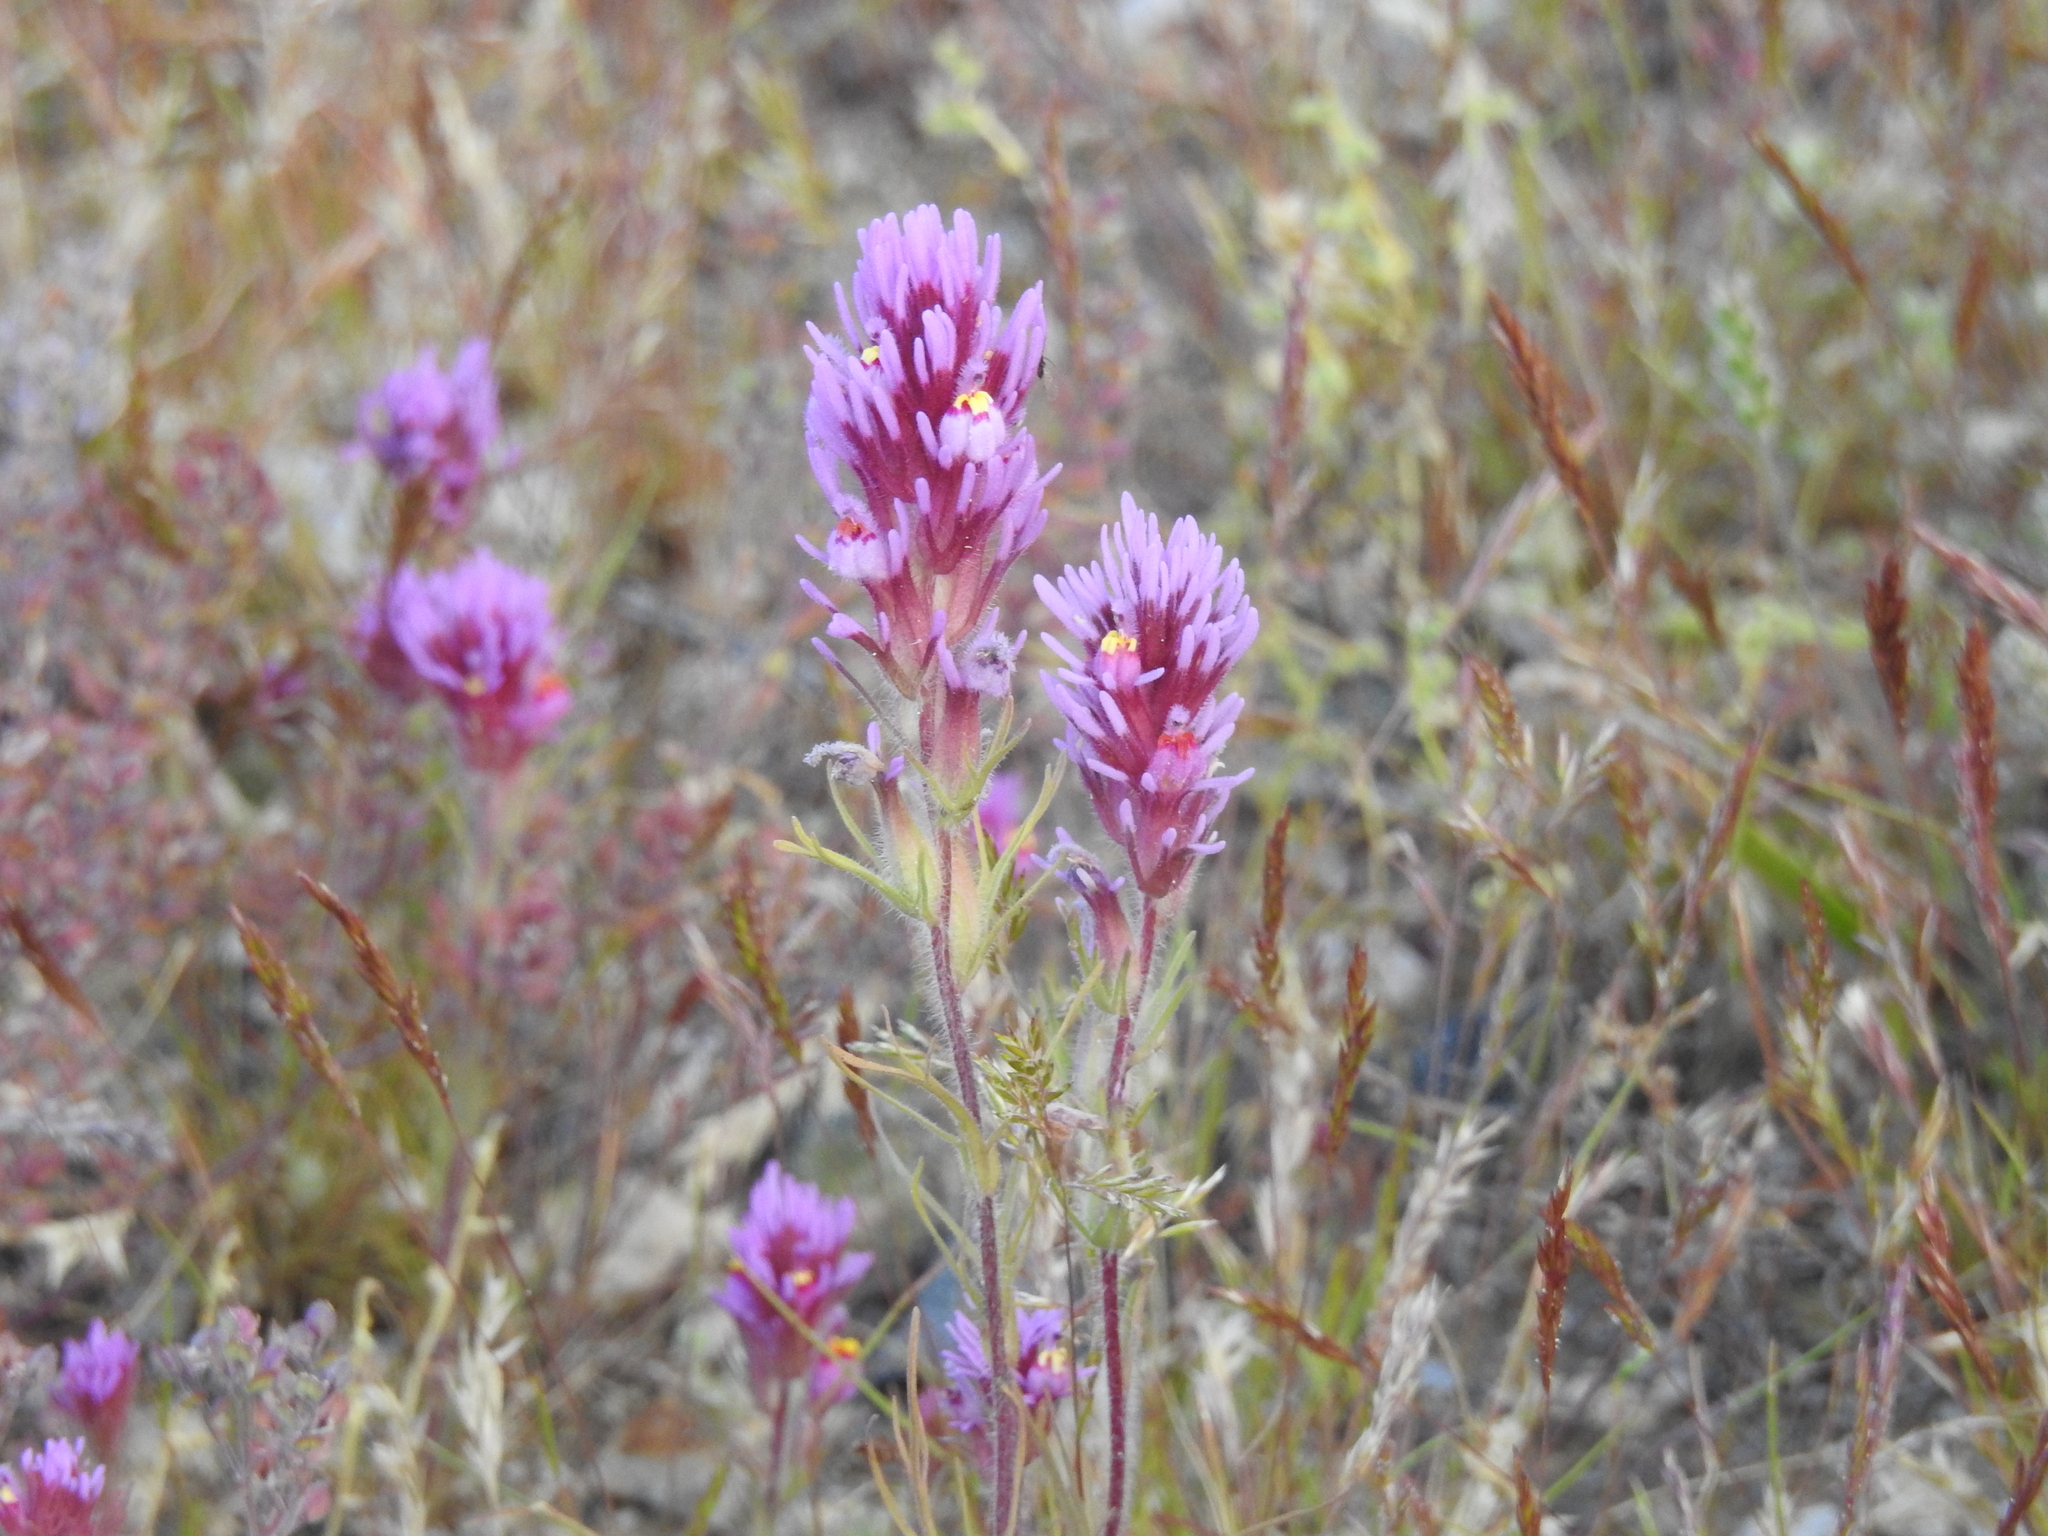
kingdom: Plantae
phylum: Tracheophyta
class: Magnoliopsida
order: Lamiales
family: Orobanchaceae
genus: Castilleja
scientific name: Castilleja exserta
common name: Purple owl-clover
